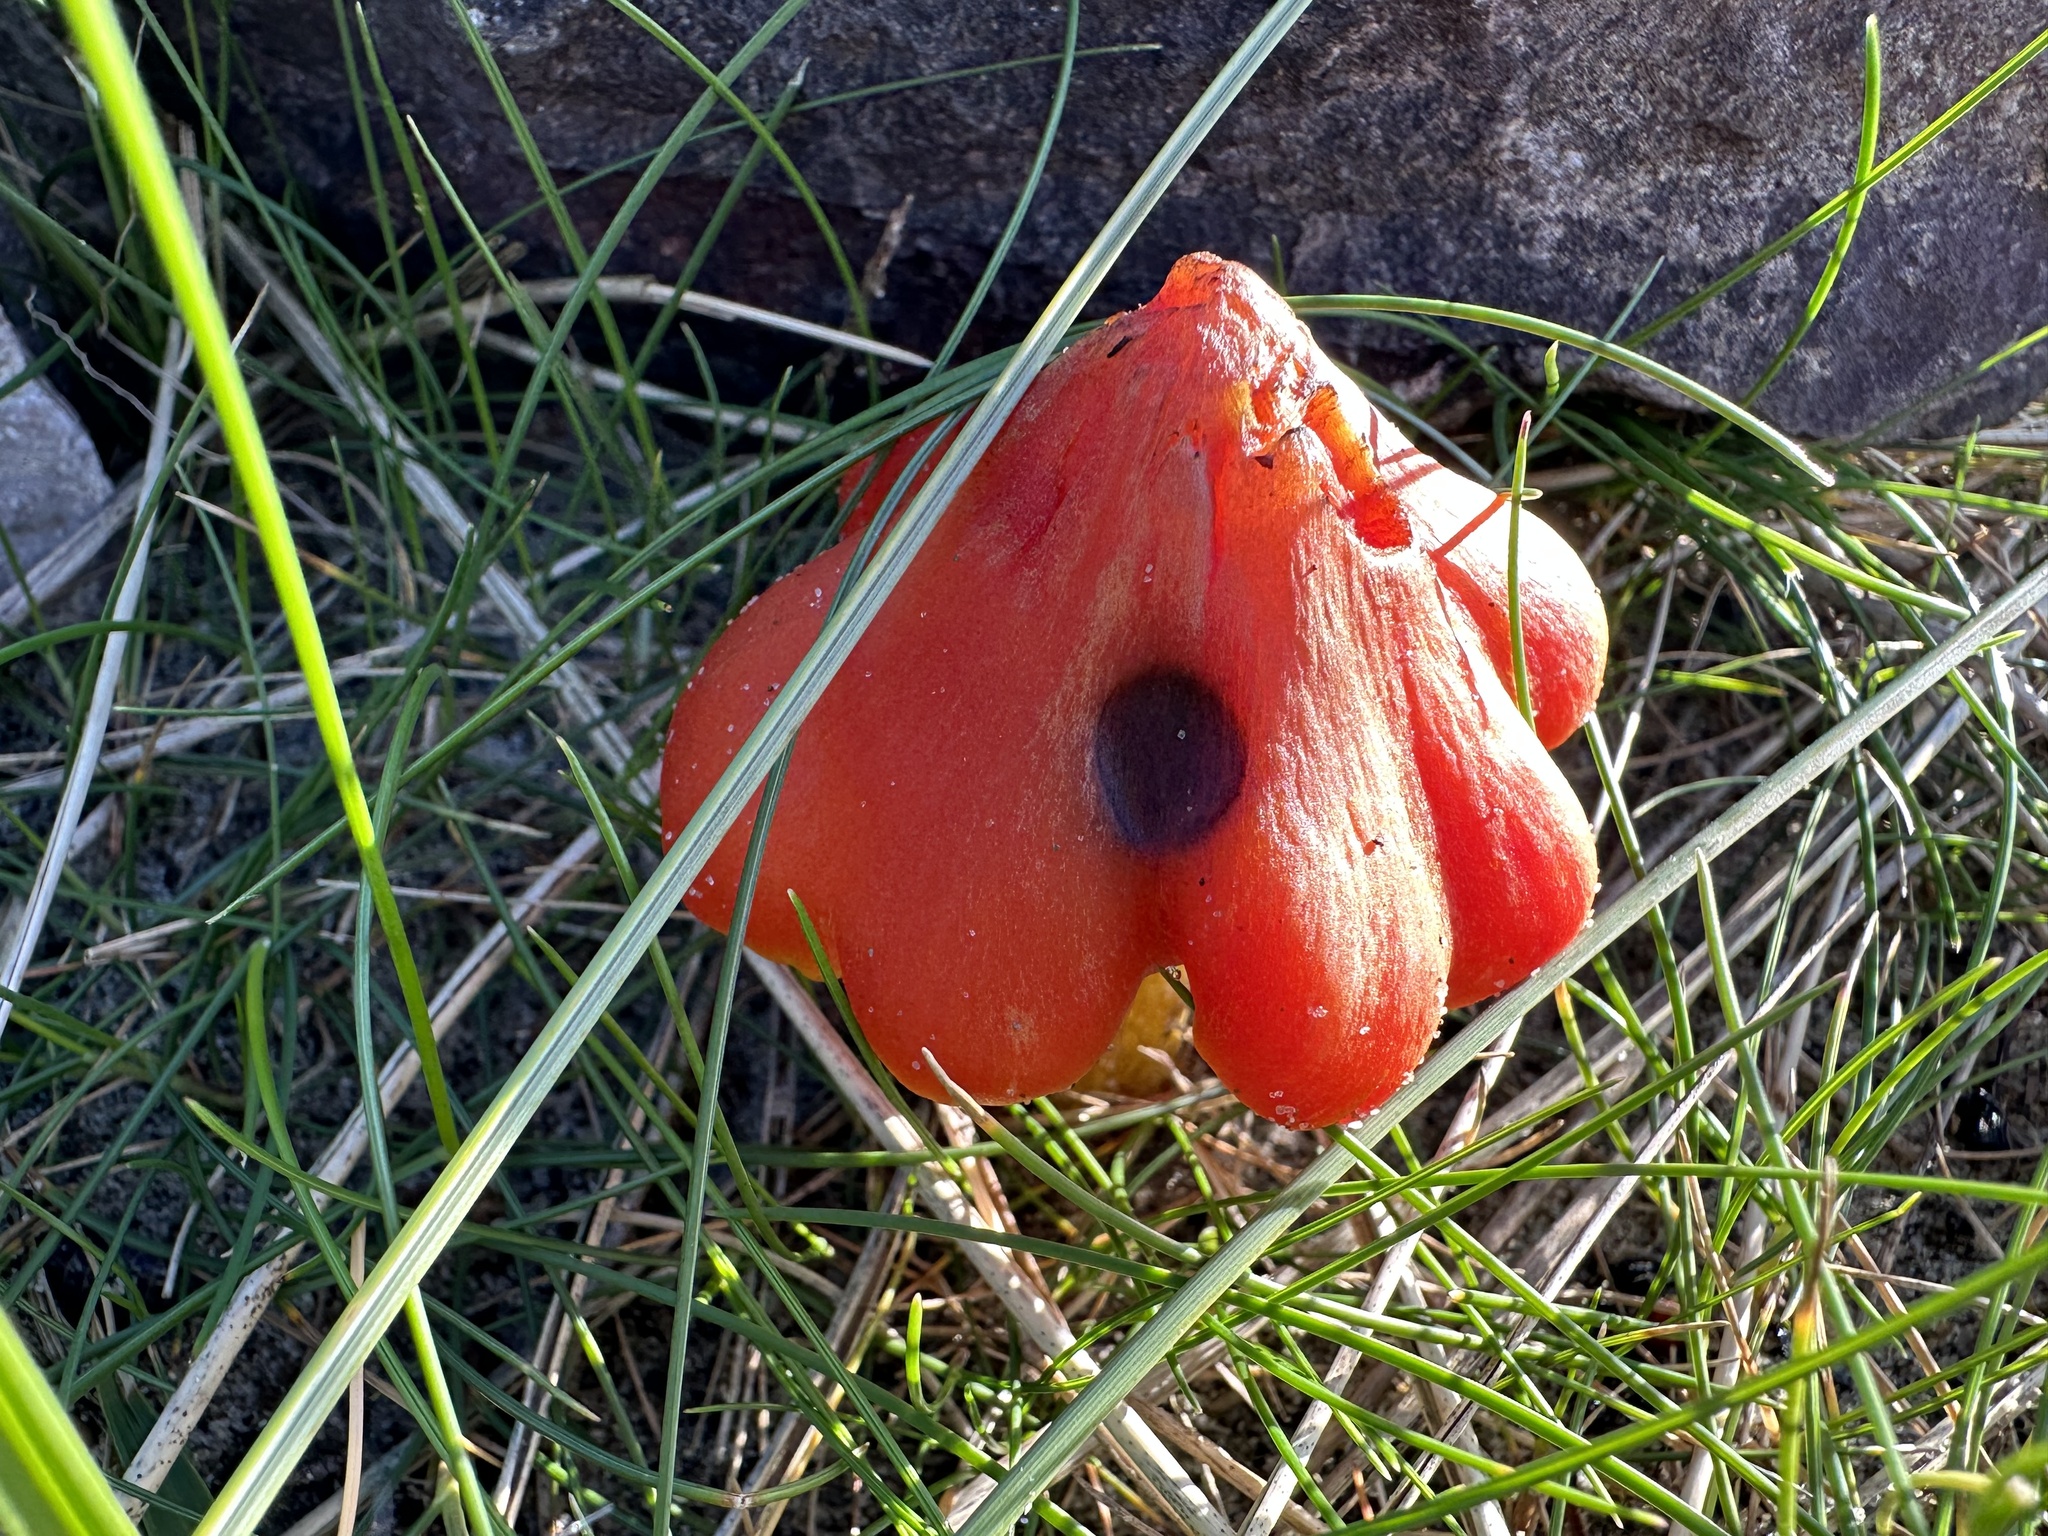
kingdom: Fungi
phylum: Basidiomycota
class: Agaricomycetes
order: Agaricales
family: Hygrophoraceae
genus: Hygrocybe
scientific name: Hygrocybe conica
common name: Blackening wax-cap
